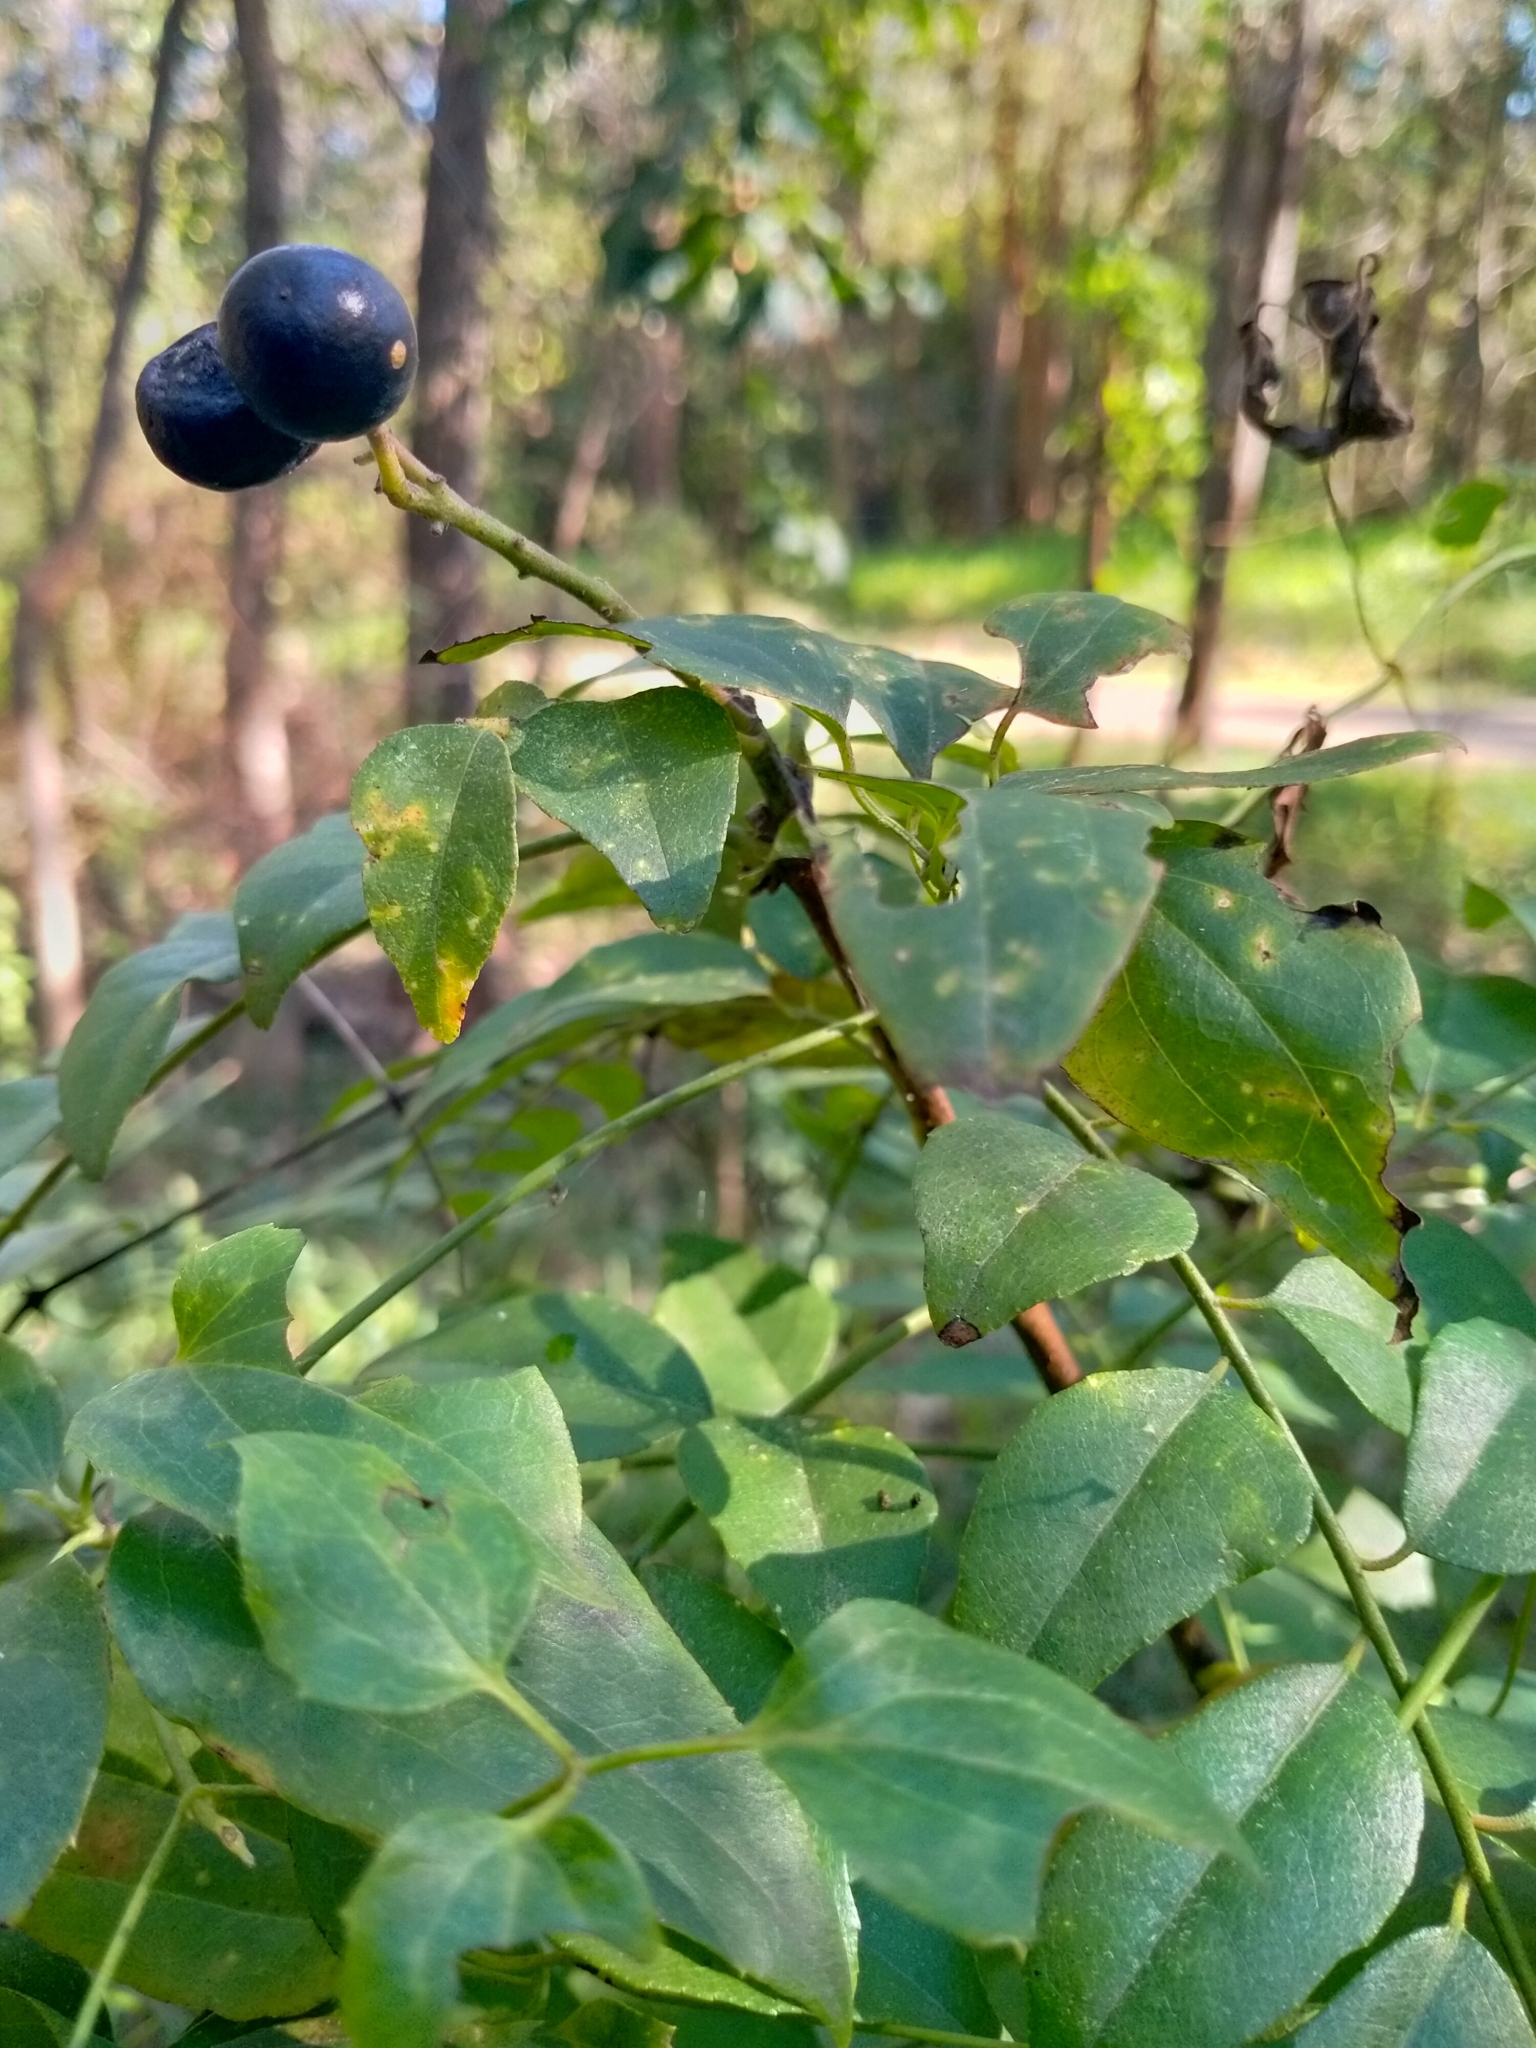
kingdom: Plantae
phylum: Tracheophyta
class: Magnoliopsida
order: Sapindales
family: Rutaceae
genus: Murraya
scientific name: Murraya koenigii
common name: Curry-plant
